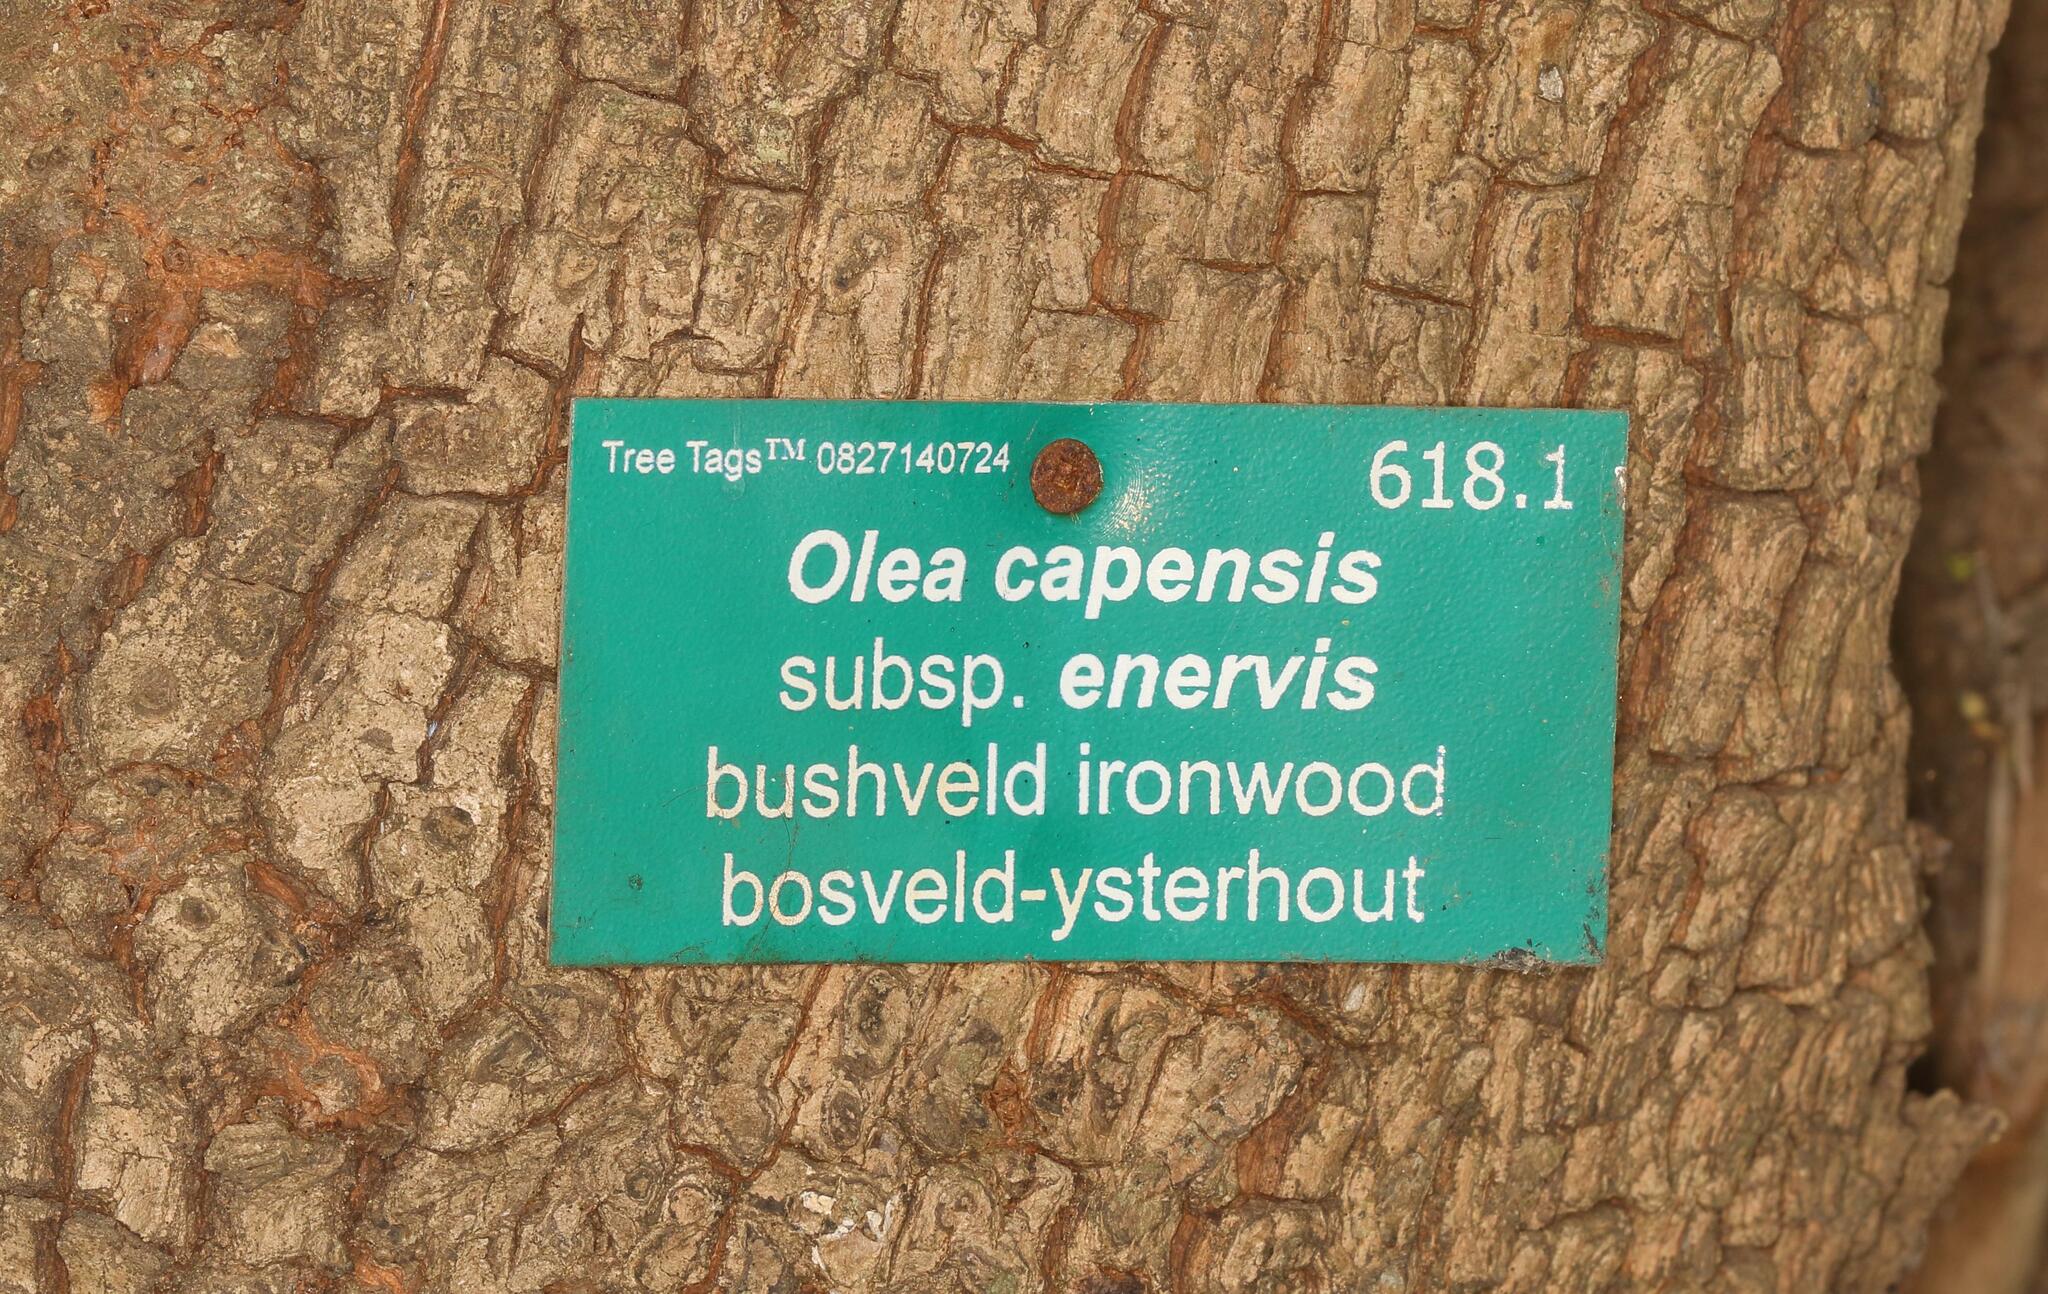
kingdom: Plantae
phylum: Tracheophyta
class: Magnoliopsida
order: Ericales
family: Sapotaceae
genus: Sideroxylon
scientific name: Sideroxylon inerme
